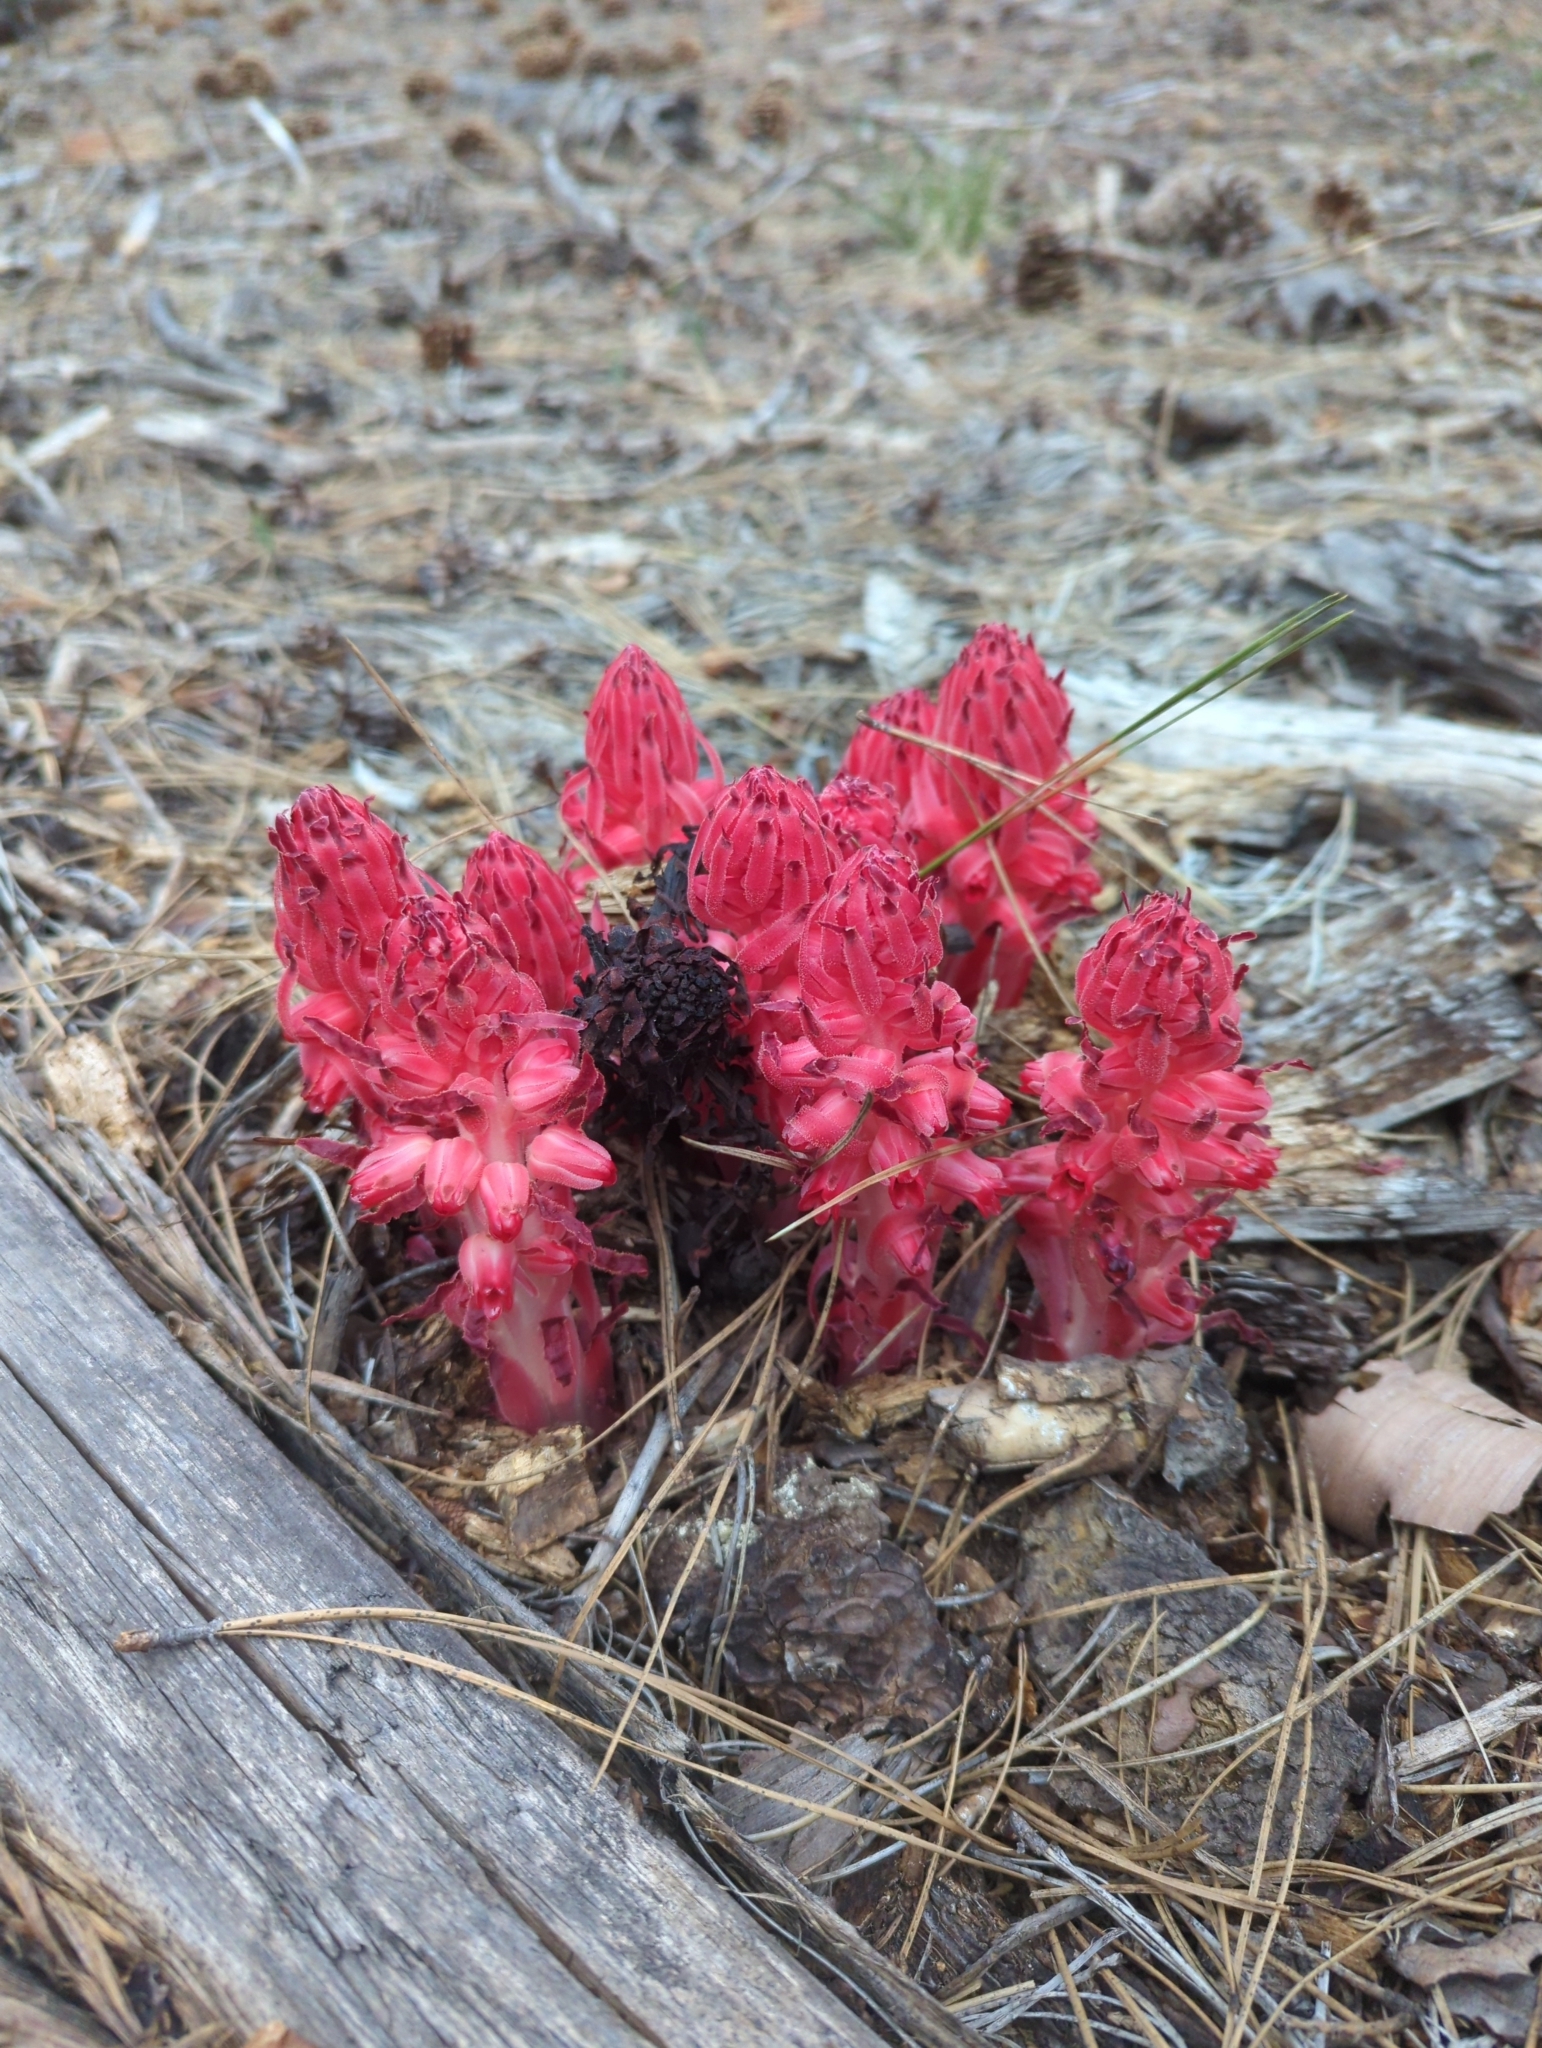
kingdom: Plantae
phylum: Tracheophyta
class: Magnoliopsida
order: Ericales
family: Ericaceae
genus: Sarcodes
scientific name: Sarcodes sanguinea
